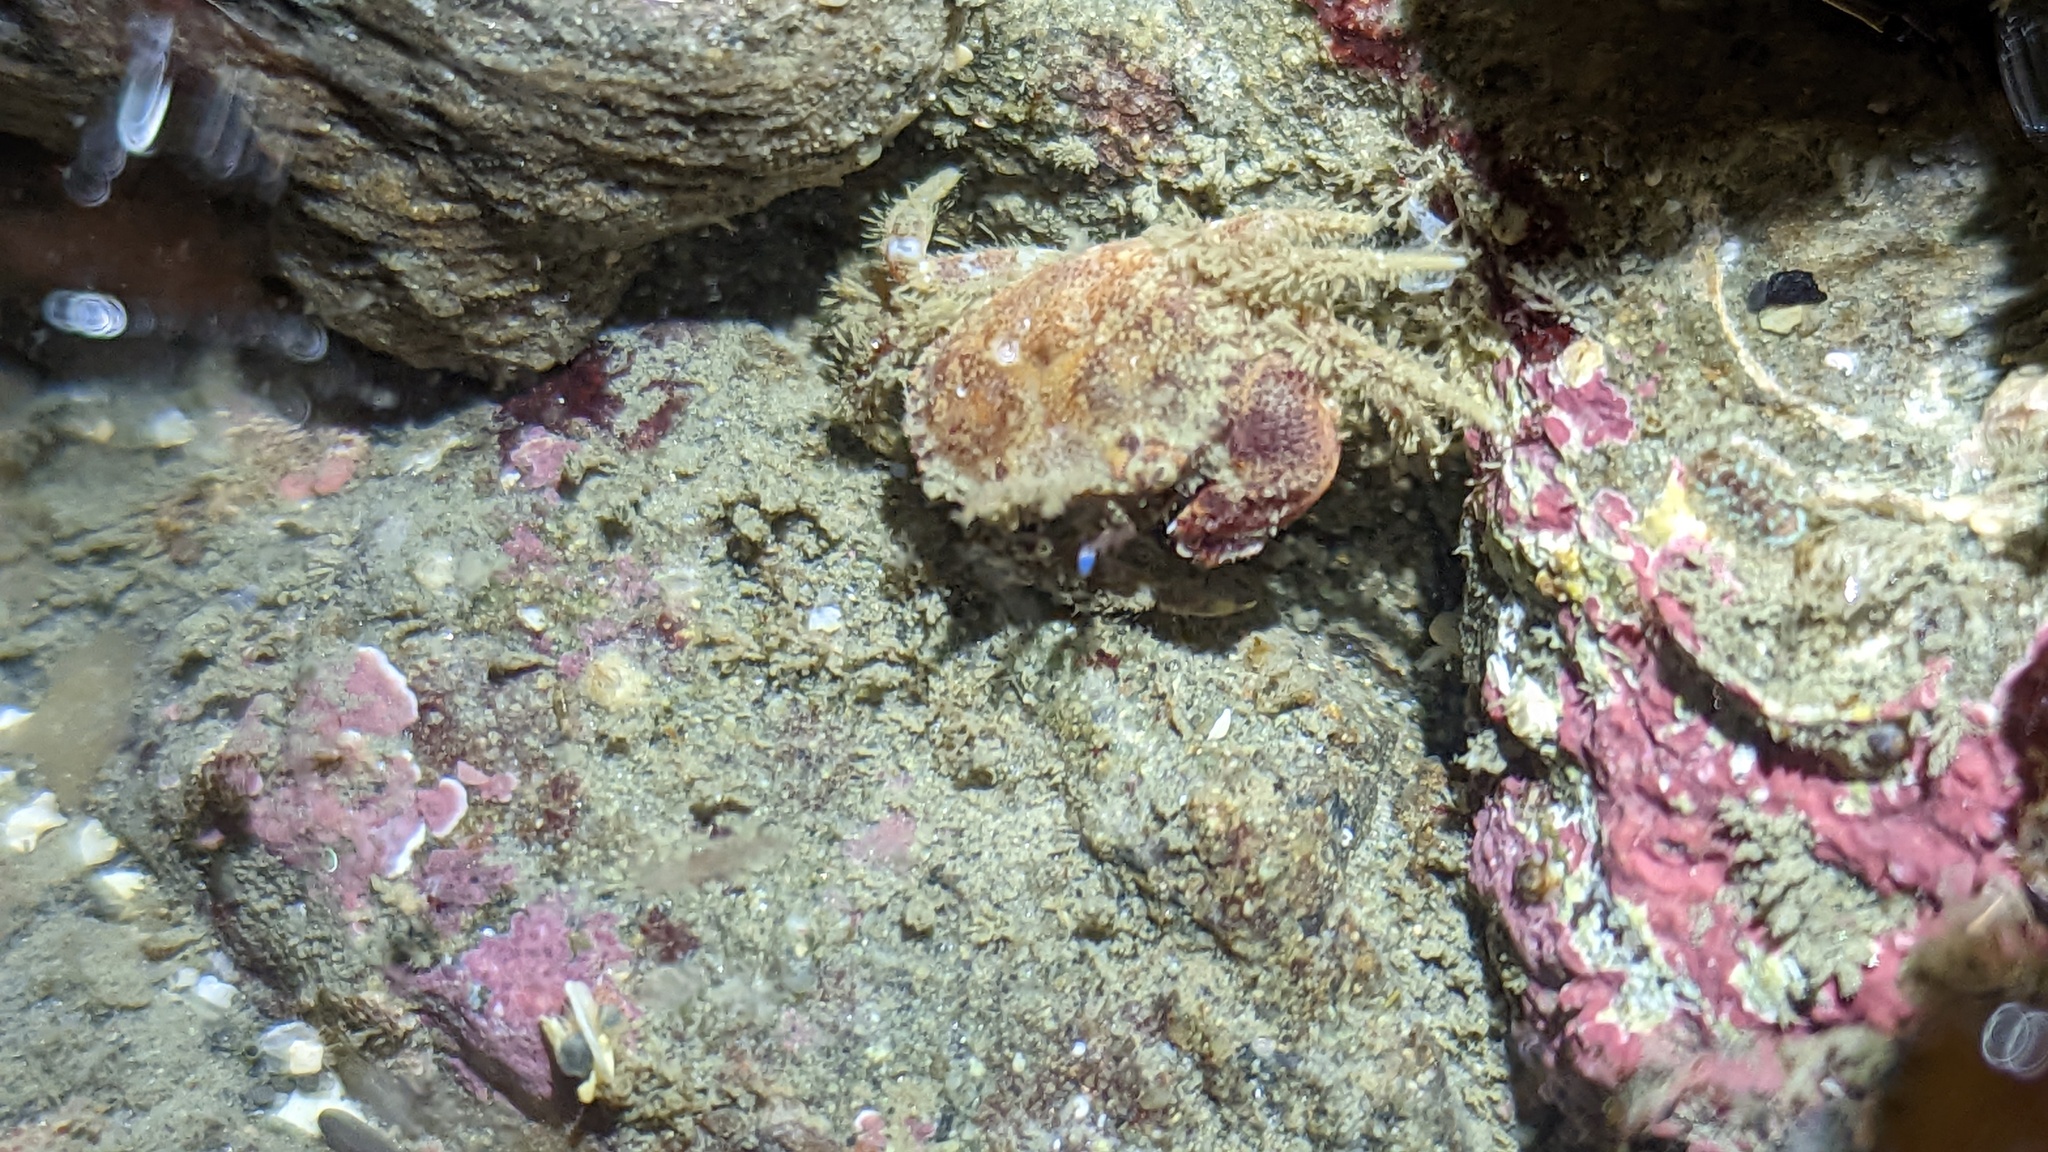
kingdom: Animalia
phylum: Arthropoda
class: Malacostraca
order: Decapoda
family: Cancridae
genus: Glebocarcinus
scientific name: Glebocarcinus oregonensis
